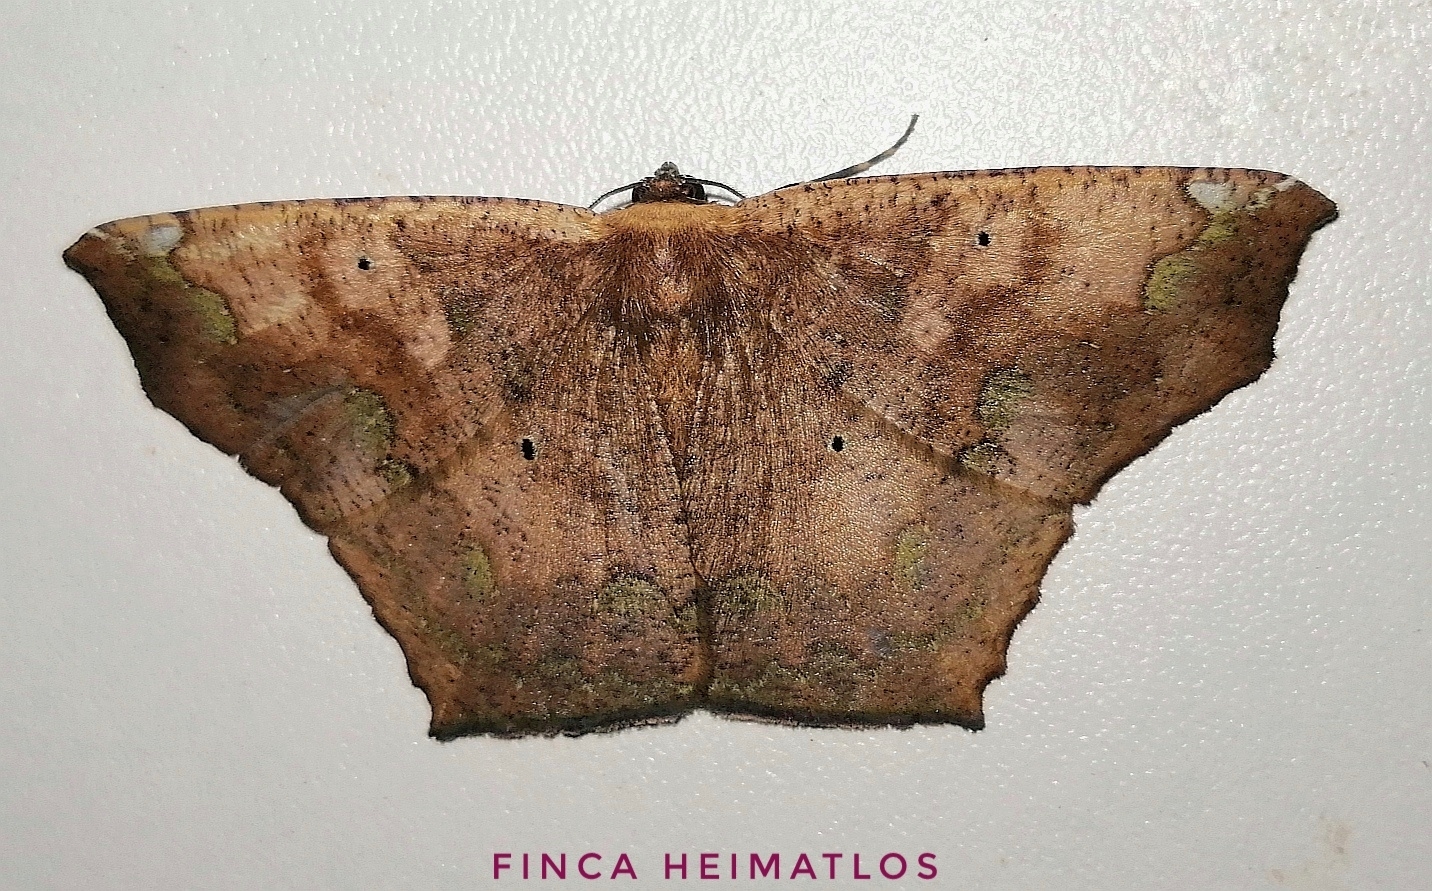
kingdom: Animalia
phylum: Arthropoda
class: Insecta
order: Lepidoptera
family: Geometridae
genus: Paragonia
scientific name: Paragonia cruraria
